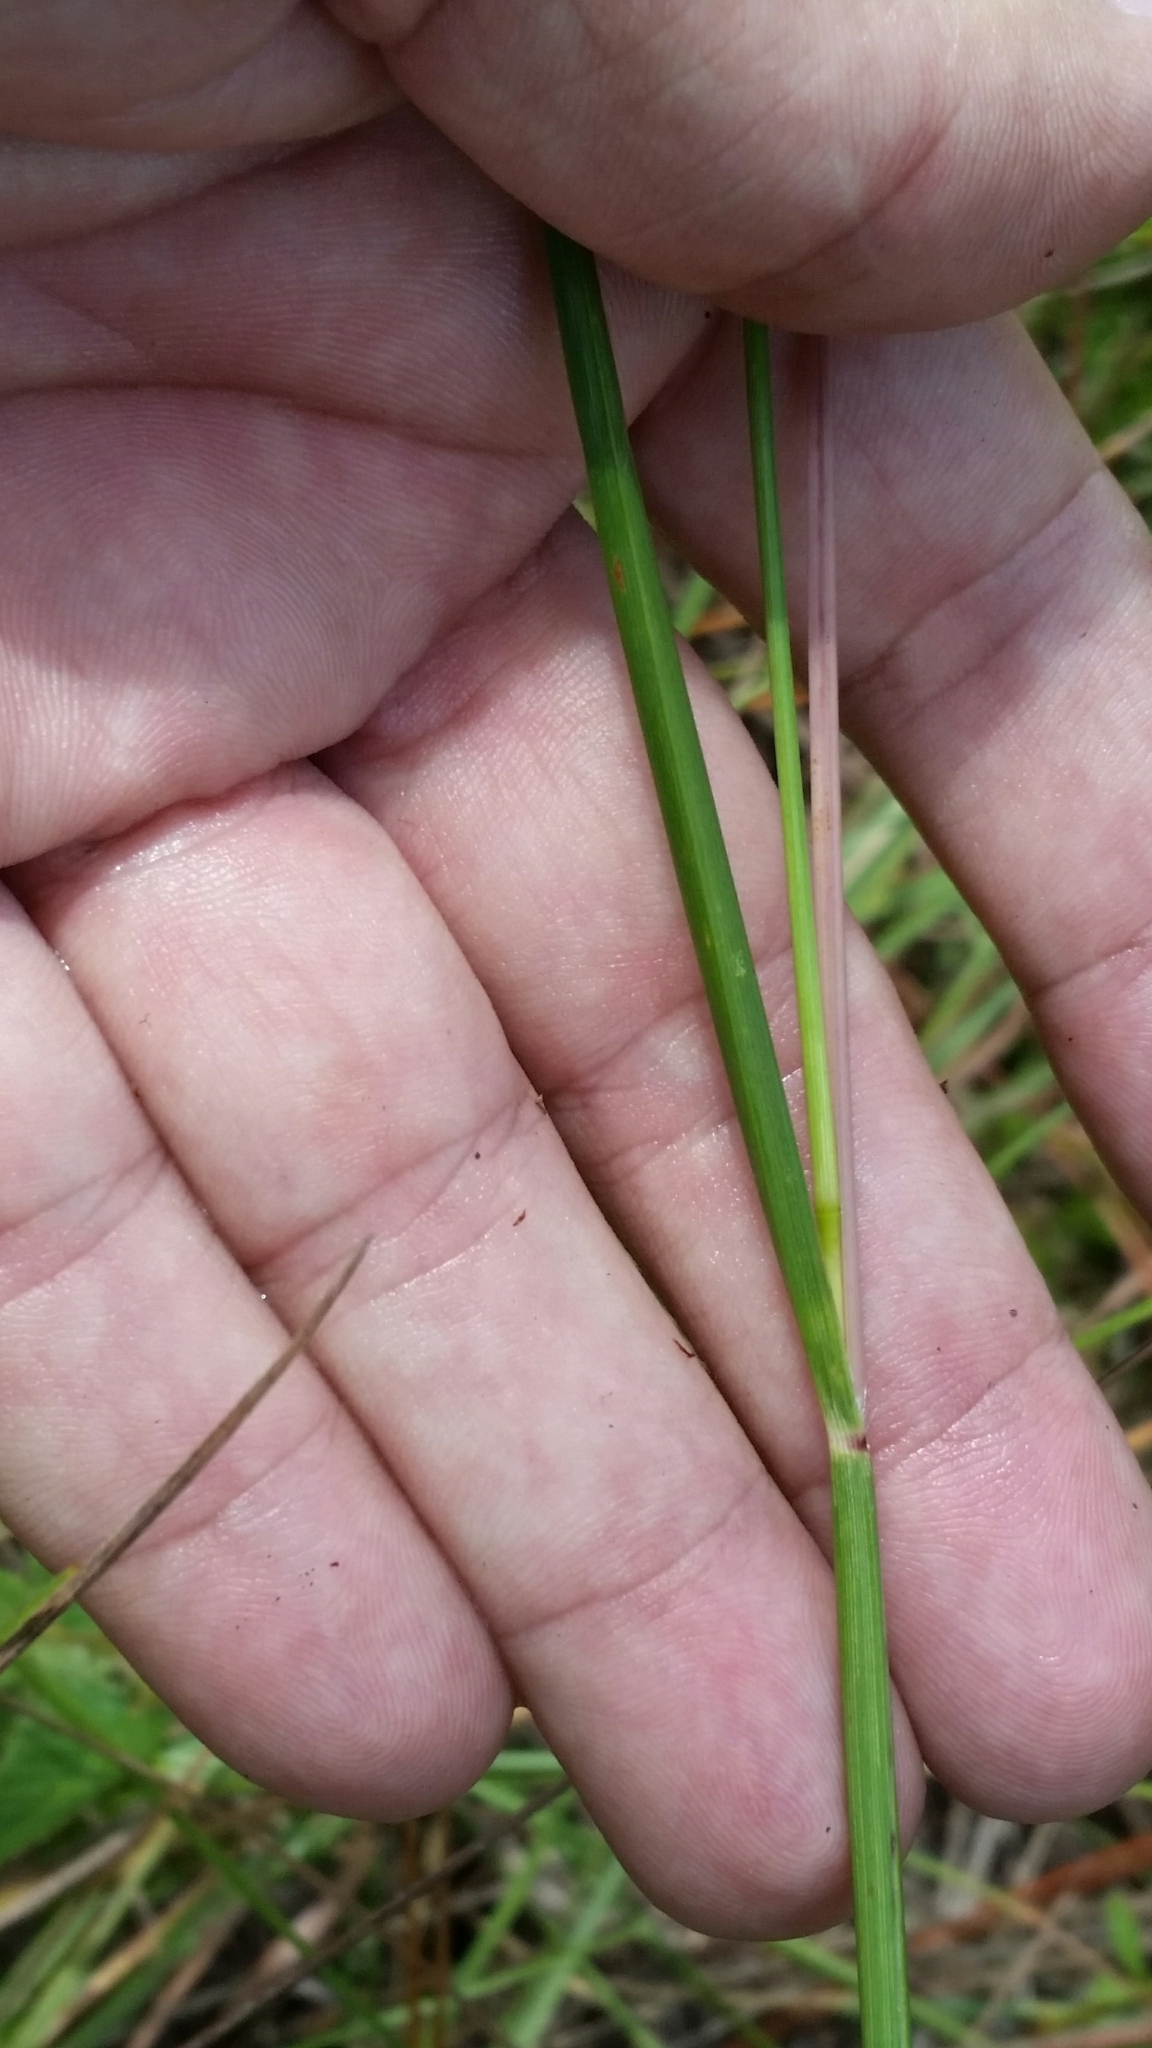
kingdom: Plantae
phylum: Tracheophyta
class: Liliopsida
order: Poales
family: Poaceae
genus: Elionurus
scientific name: Elionurus tripsacoides
